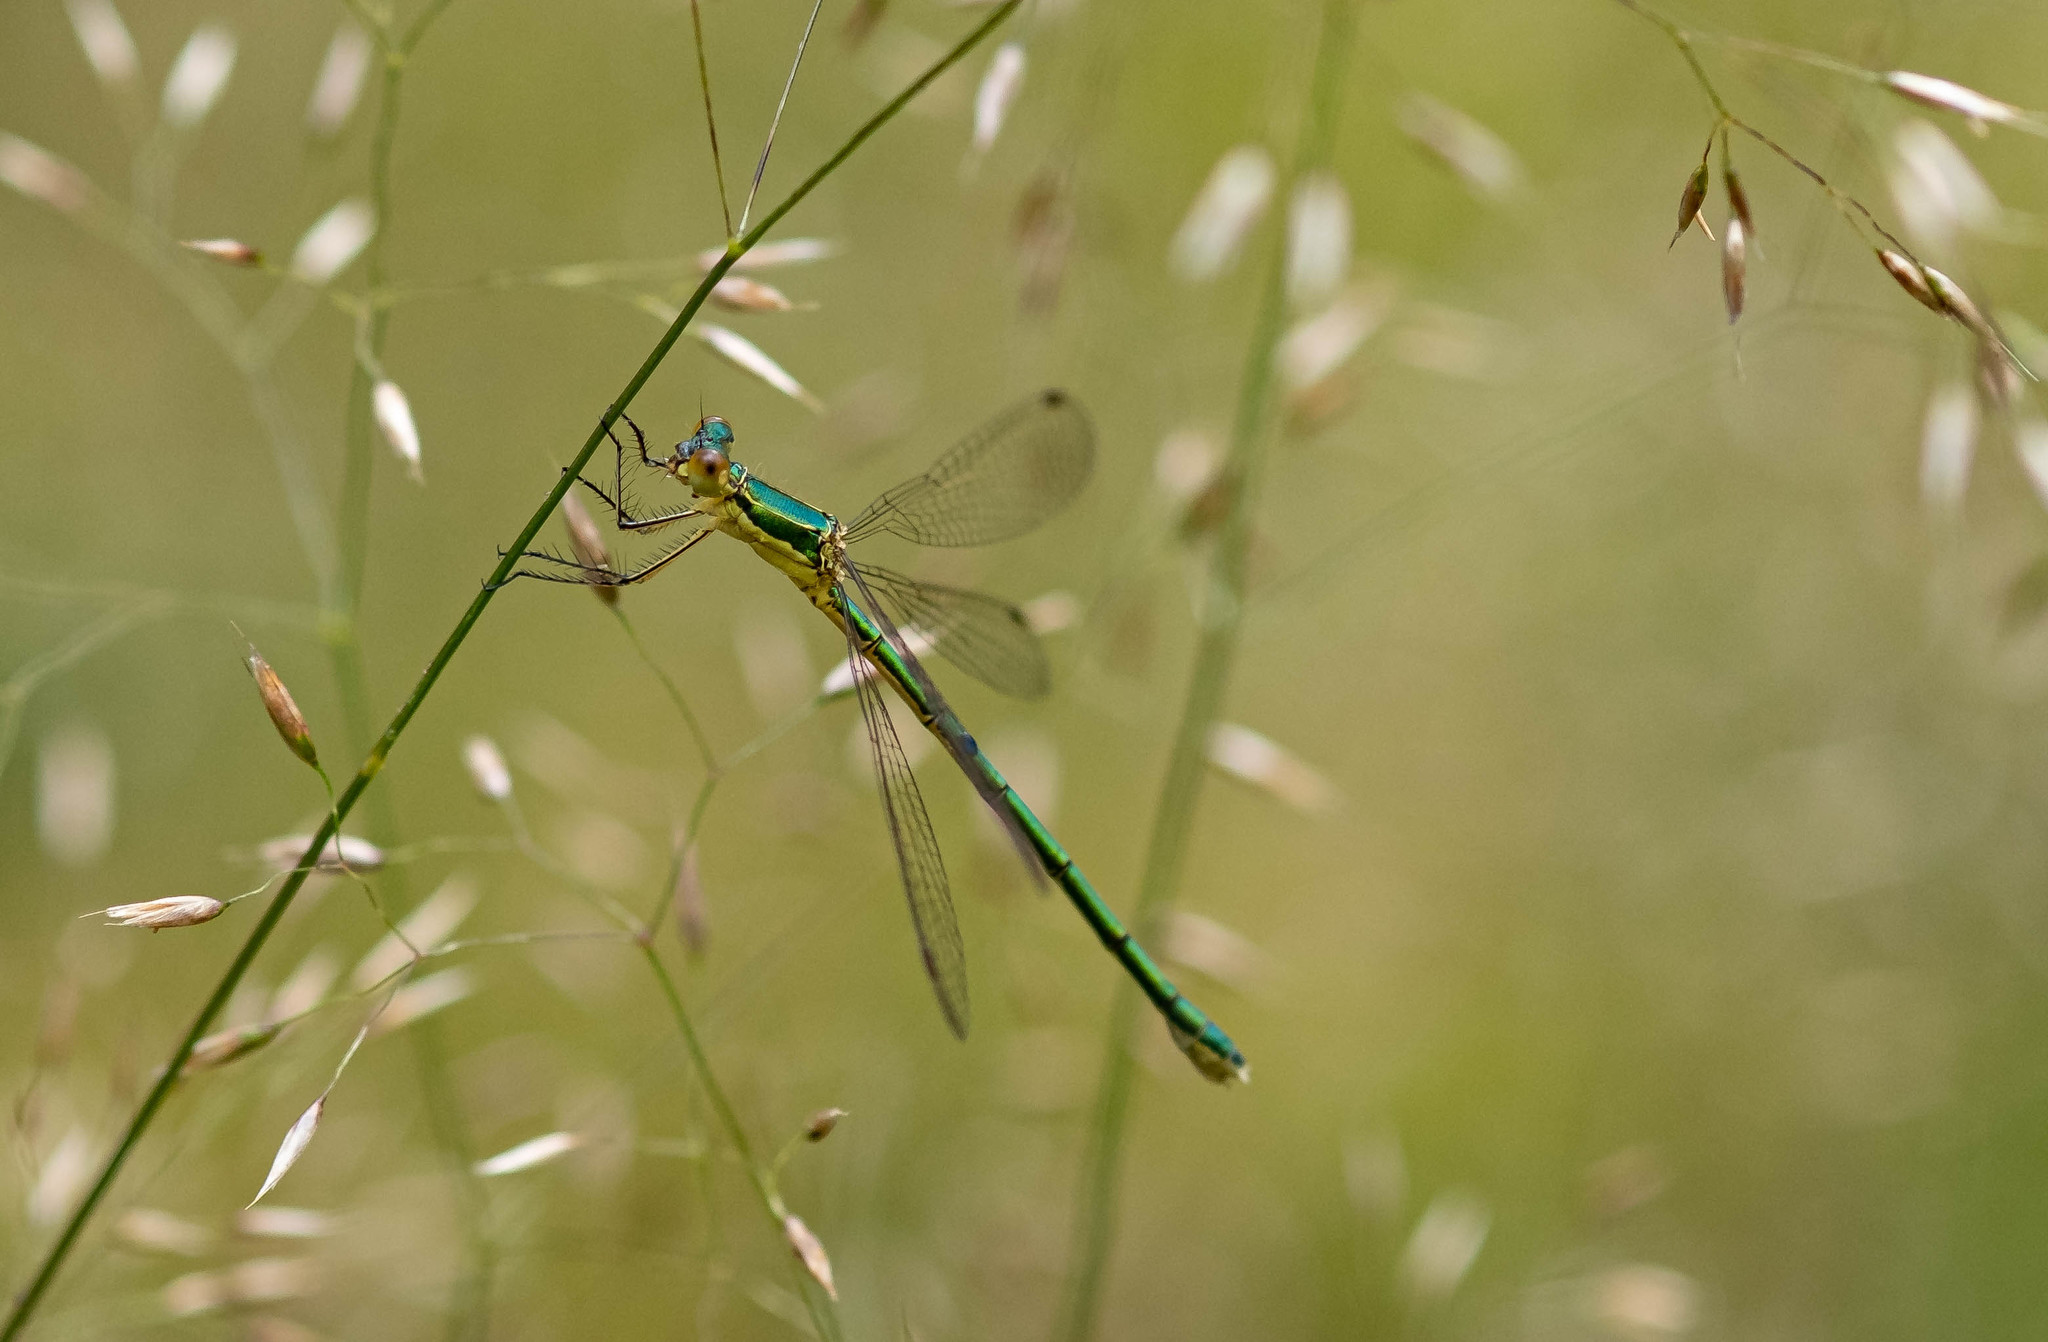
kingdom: Animalia
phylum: Arthropoda
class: Insecta
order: Odonata
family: Lestidae
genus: Lestes
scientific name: Lestes virens
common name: Small emerald spreadwing
